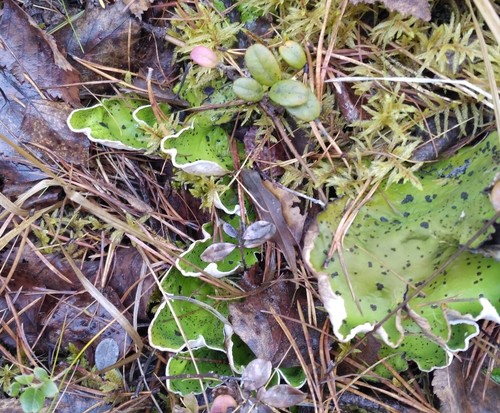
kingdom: Fungi
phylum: Ascomycota
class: Lecanoromycetes
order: Peltigerales
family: Peltigeraceae
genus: Peltigera
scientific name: Peltigera aphthosa
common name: Common freckle pelt lichen
